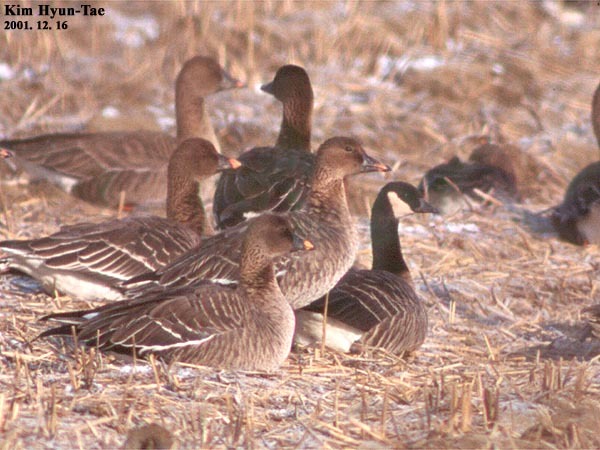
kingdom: Animalia
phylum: Chordata
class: Aves
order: Anseriformes
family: Anatidae
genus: Branta
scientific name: Branta hutchinsii
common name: Cackling goose
